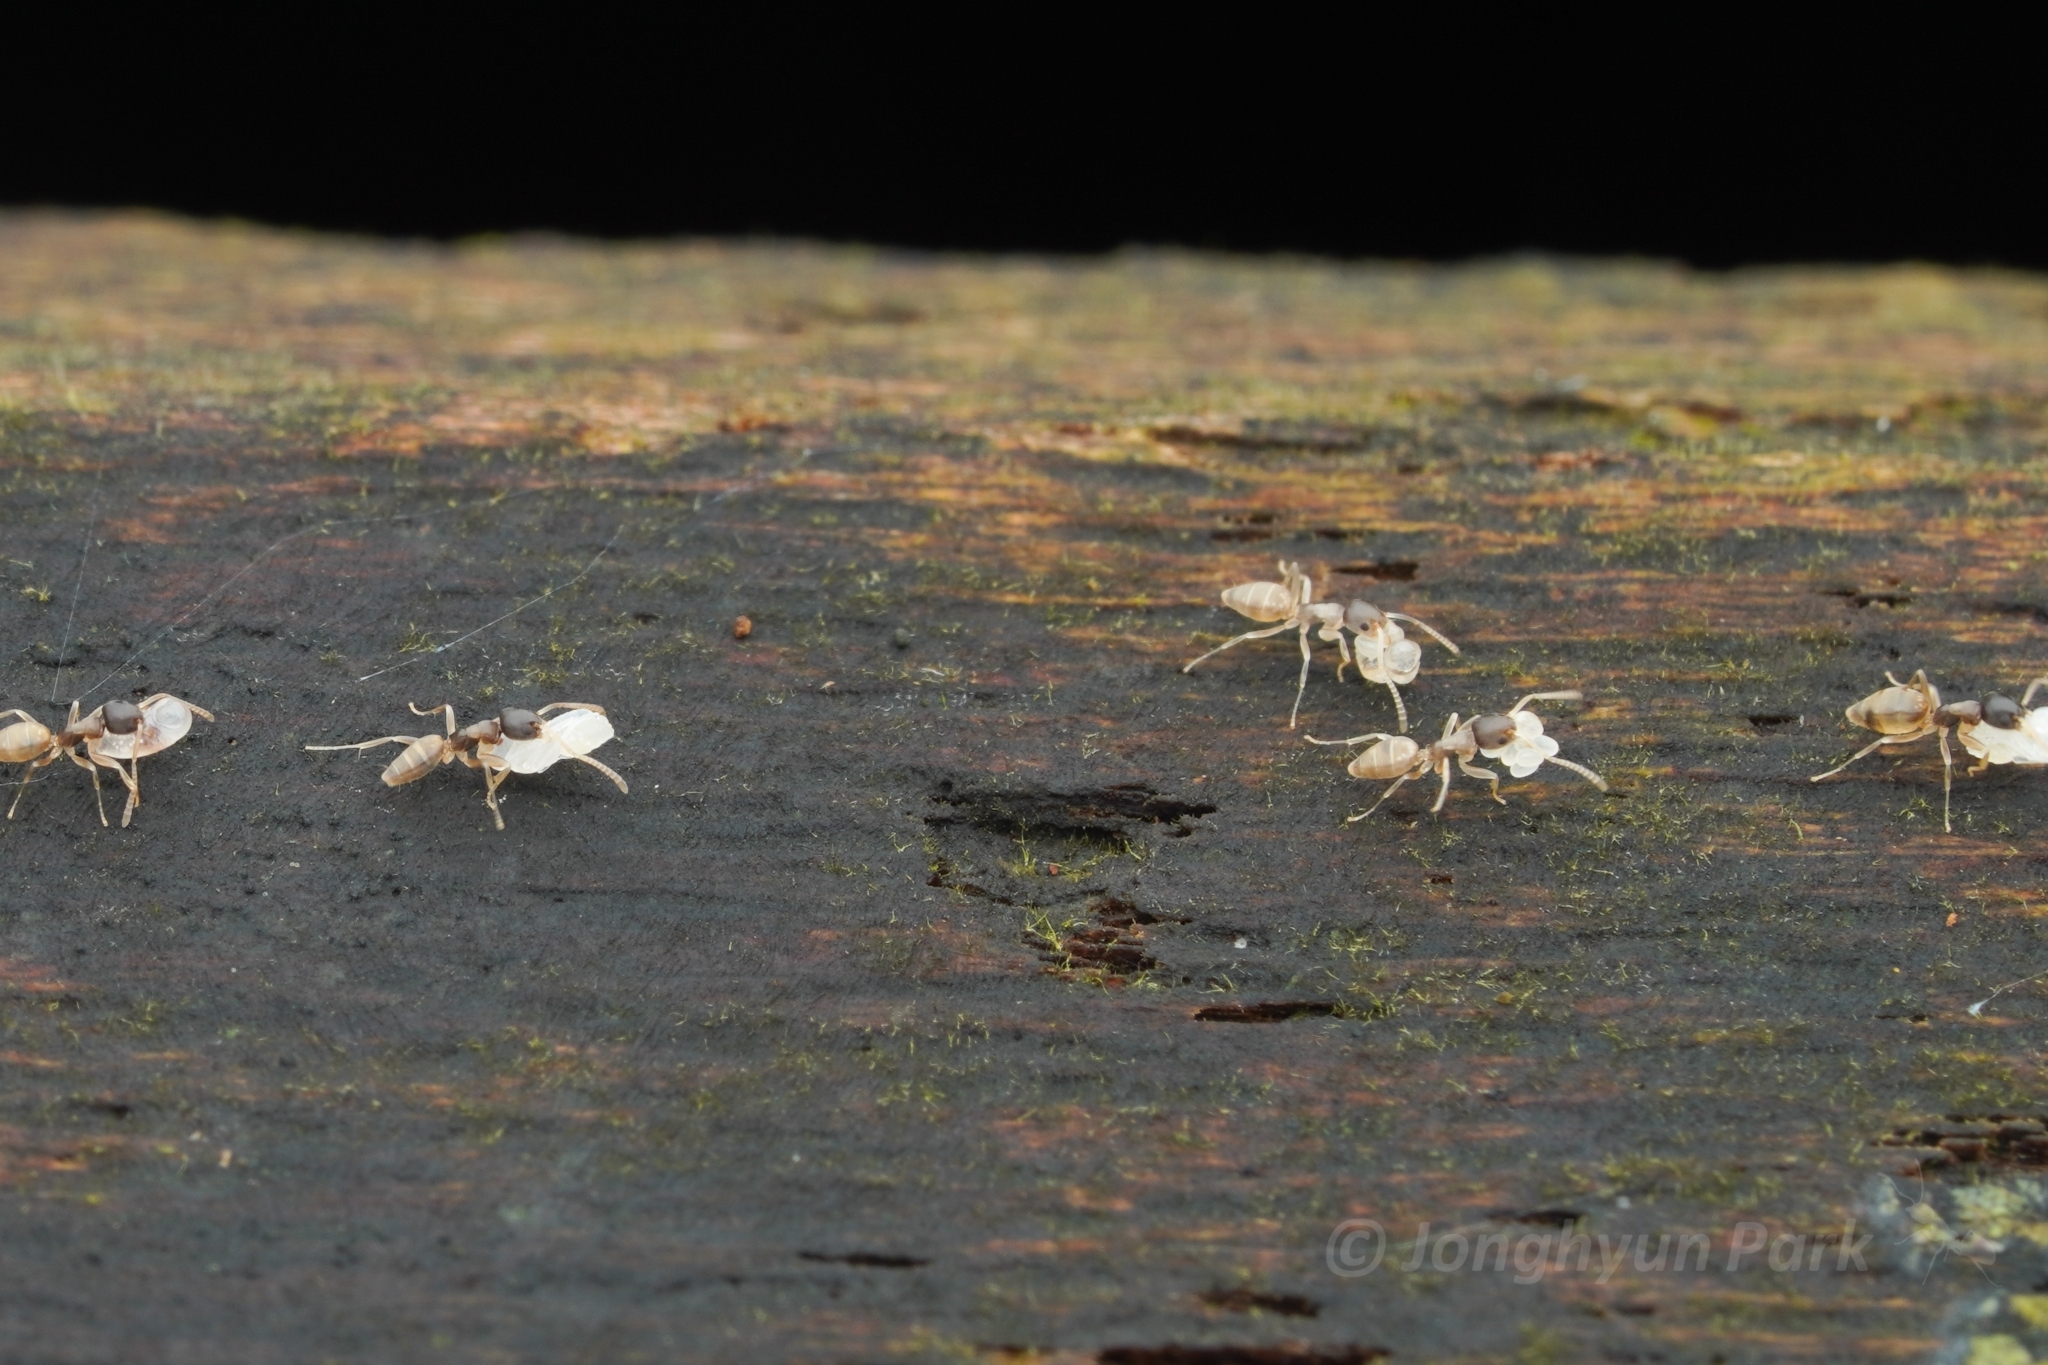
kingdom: Animalia
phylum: Arthropoda
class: Insecta
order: Hymenoptera
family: Formicidae
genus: Tapinoma
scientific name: Tapinoma melanocephalum
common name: Ghost ant
